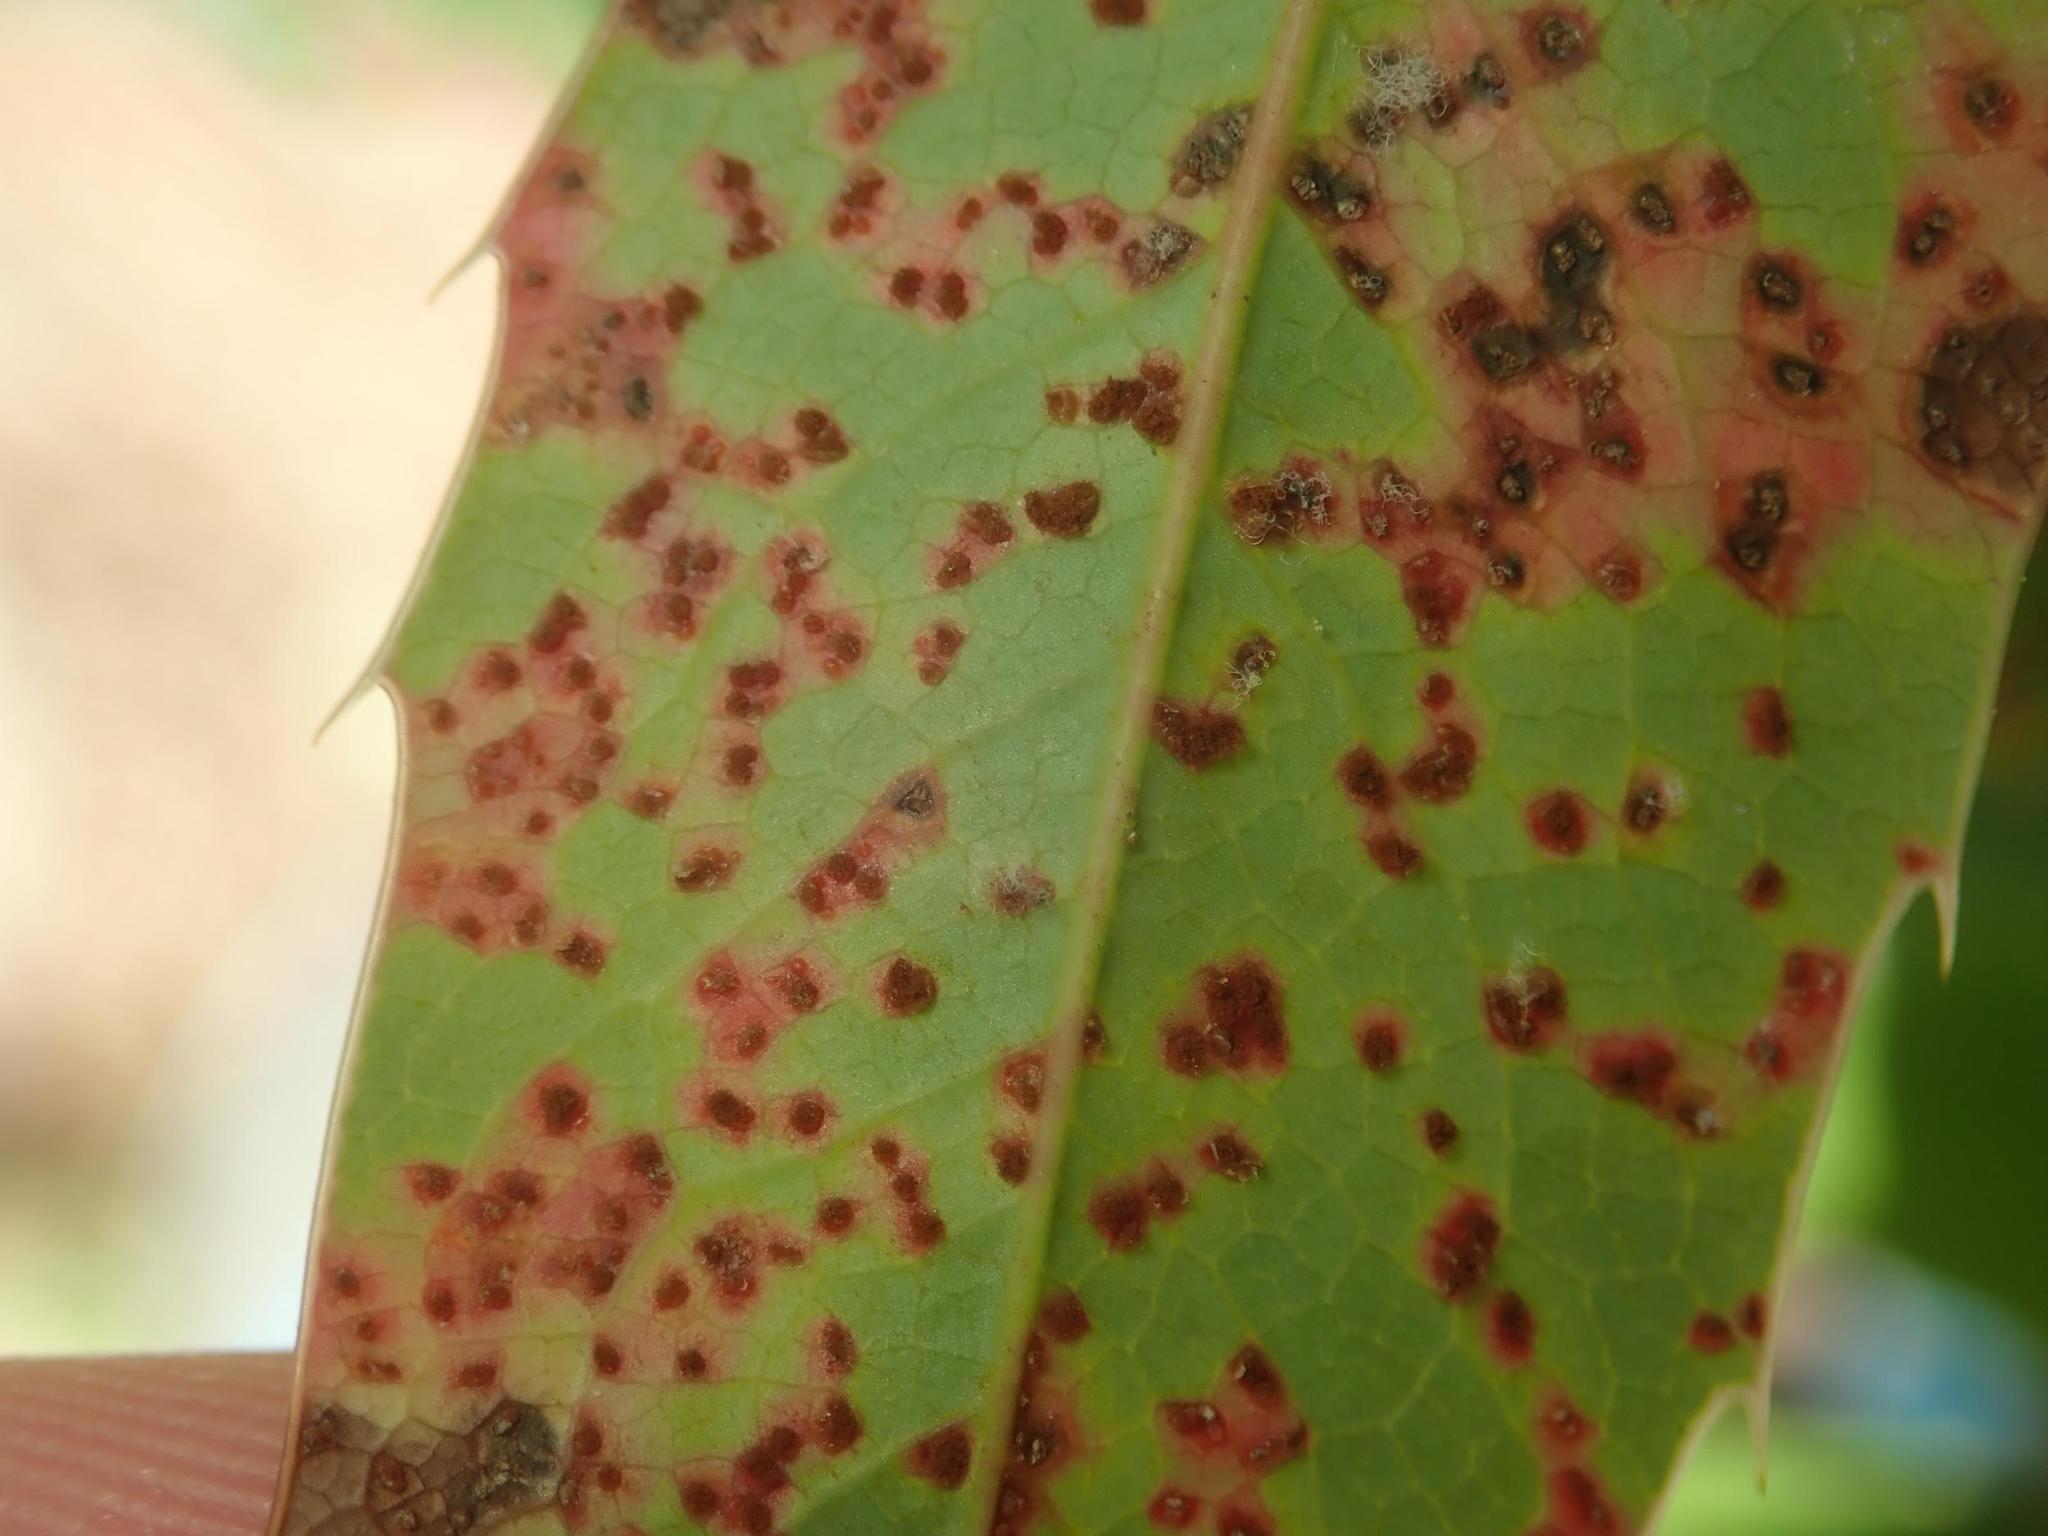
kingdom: Fungi
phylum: Basidiomycota
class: Pucciniomycetes
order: Pucciniales
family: Pucciniaceae
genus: Cumminsiella
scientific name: Cumminsiella mirabilissima
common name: Mahonia rust
